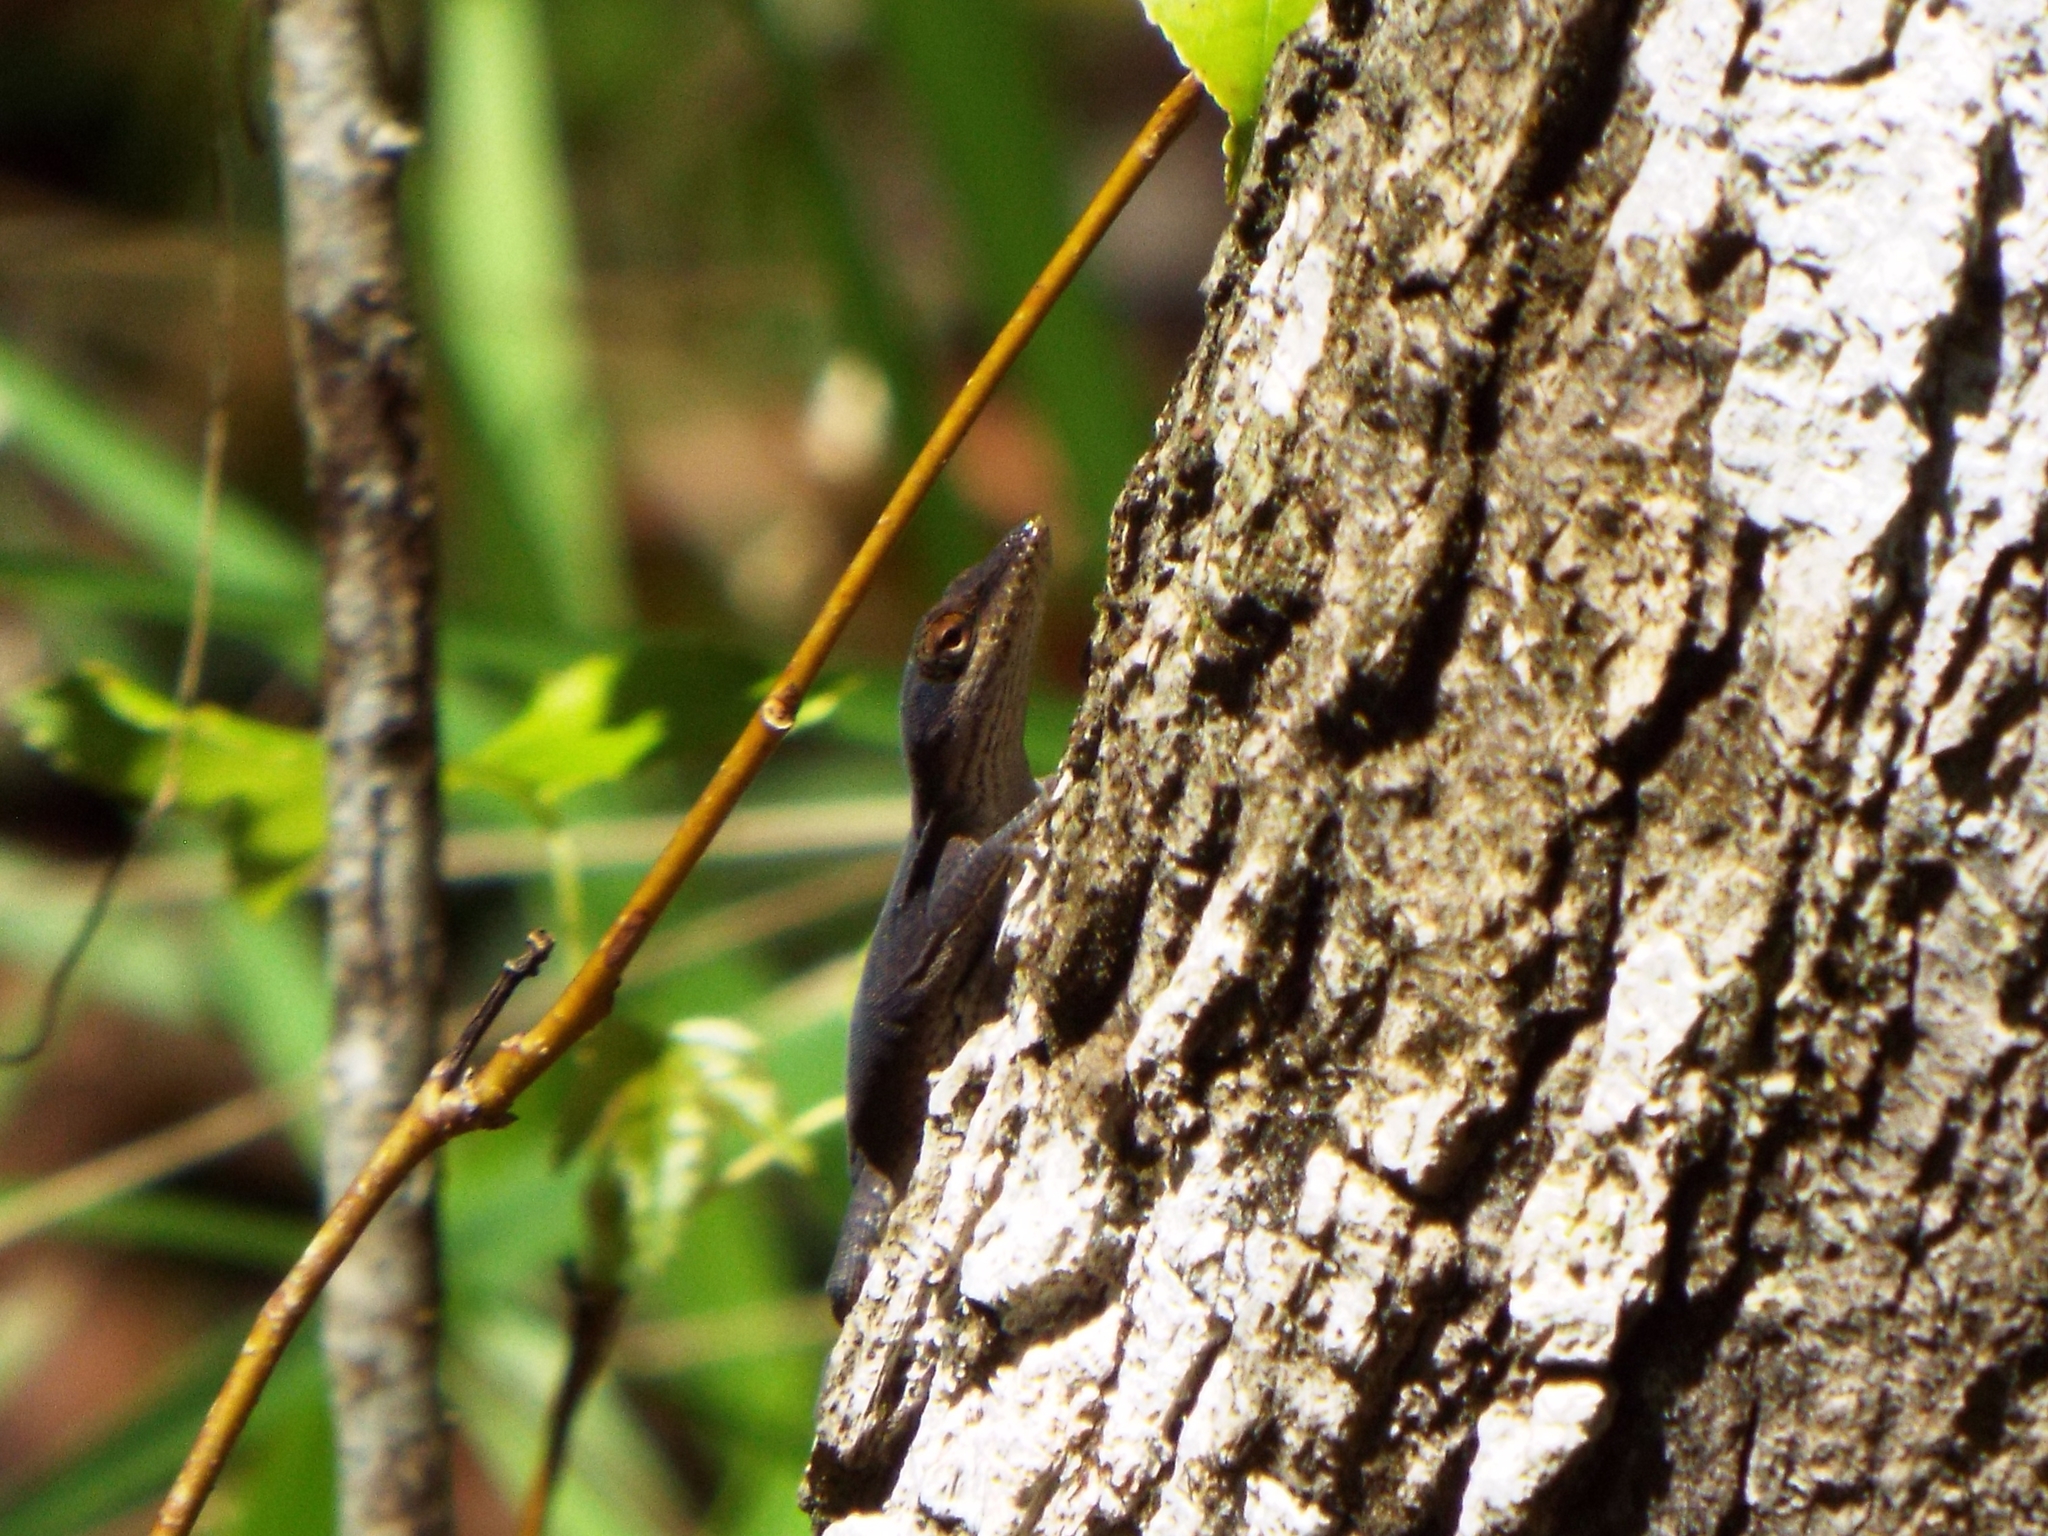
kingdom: Animalia
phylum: Chordata
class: Squamata
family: Dactyloidae
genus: Anolis
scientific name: Anolis carolinensis
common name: Green anole
